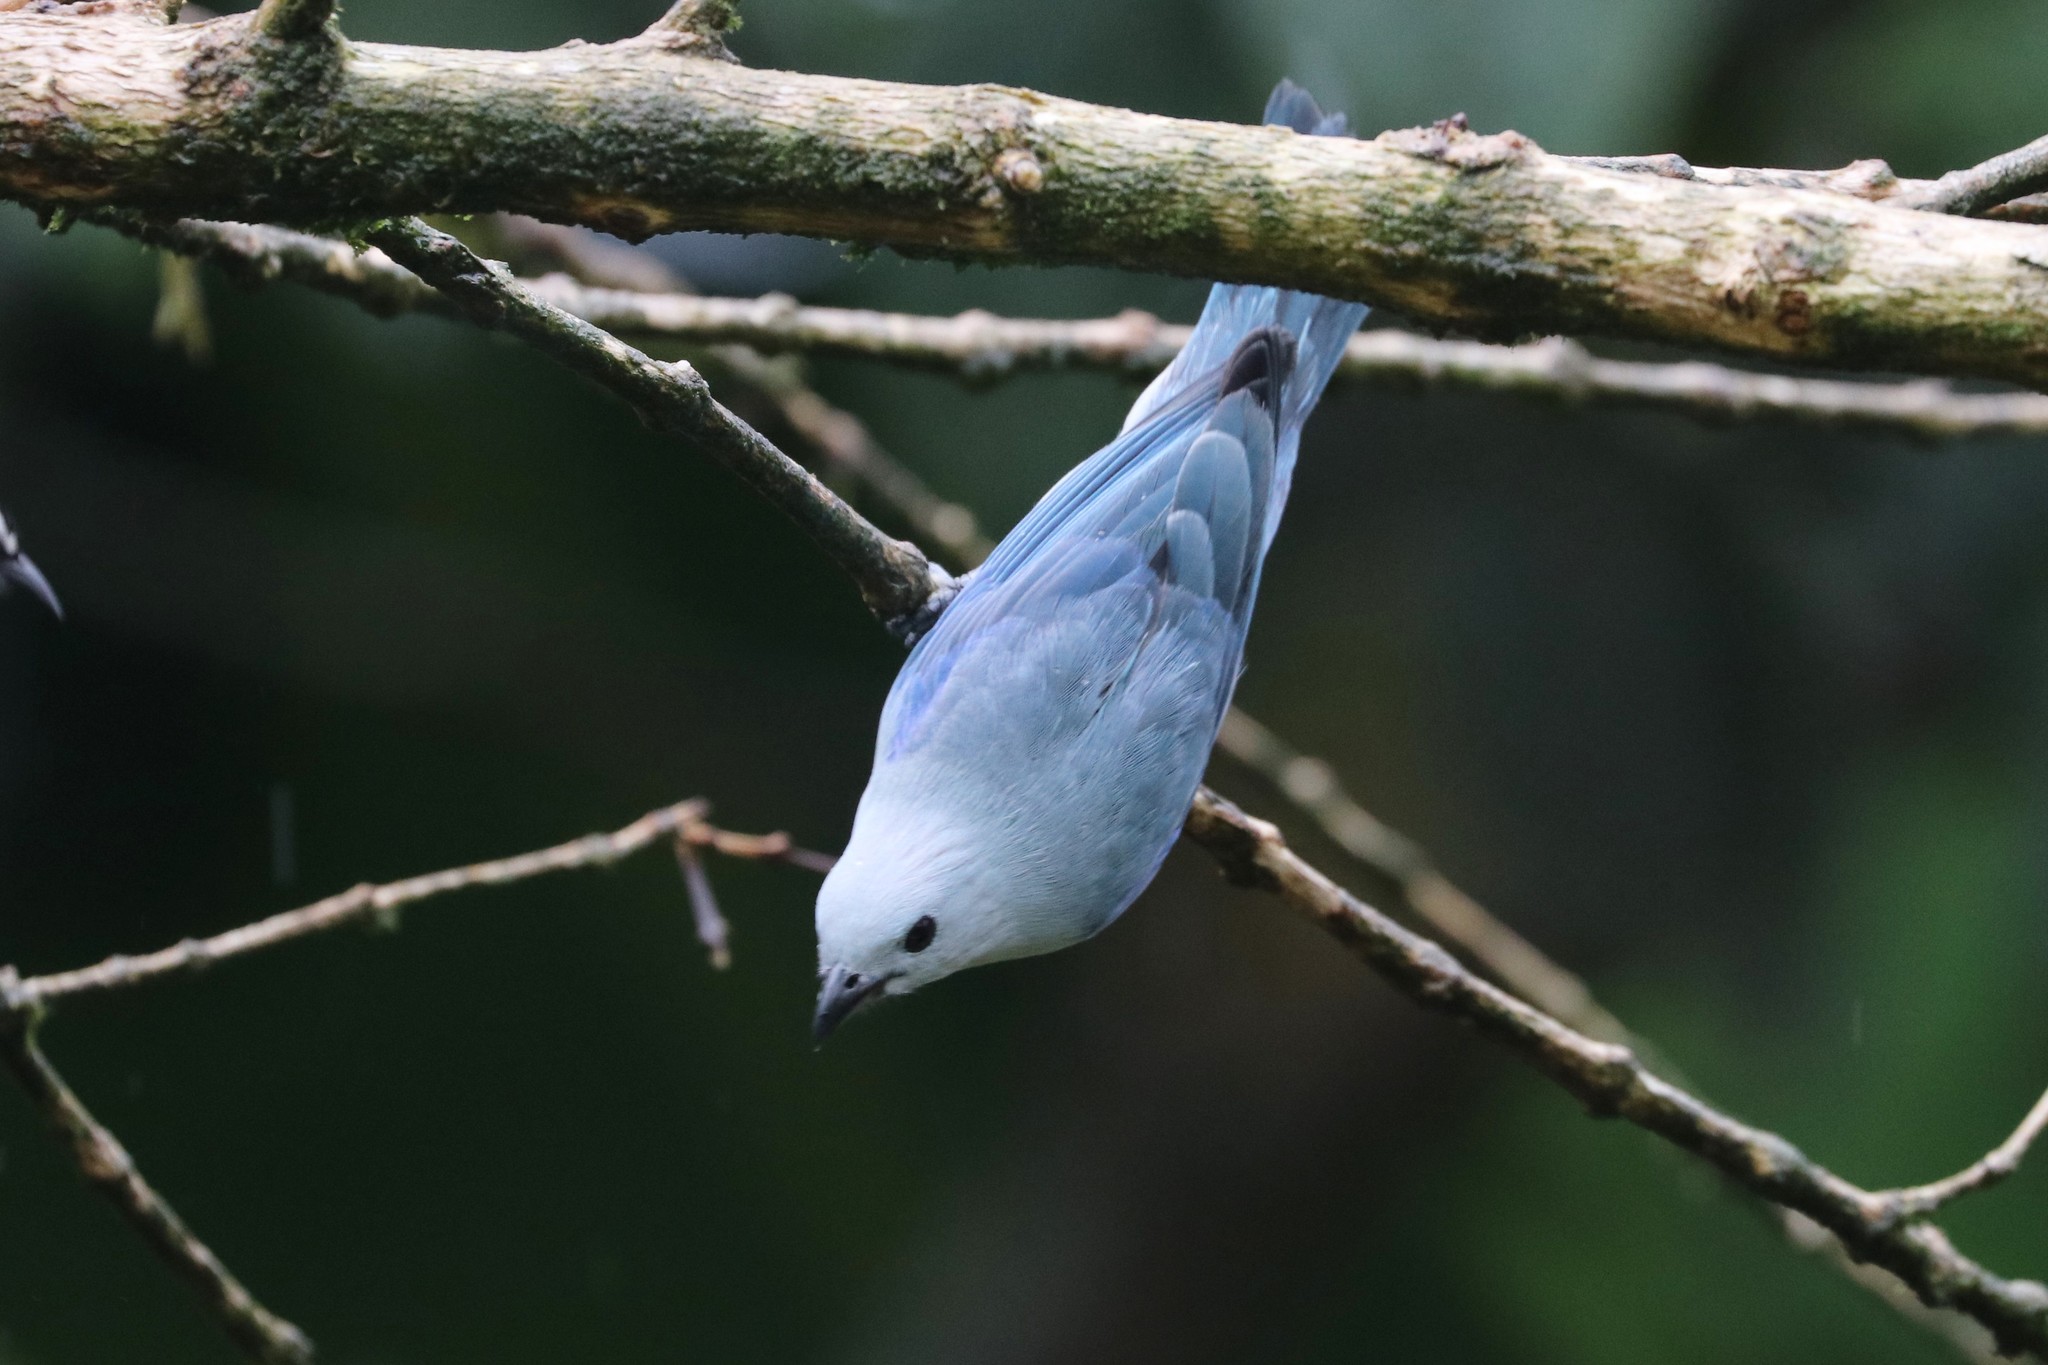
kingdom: Animalia
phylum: Chordata
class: Aves
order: Passeriformes
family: Thraupidae
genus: Thraupis
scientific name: Thraupis episcopus
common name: Blue-grey tanager
